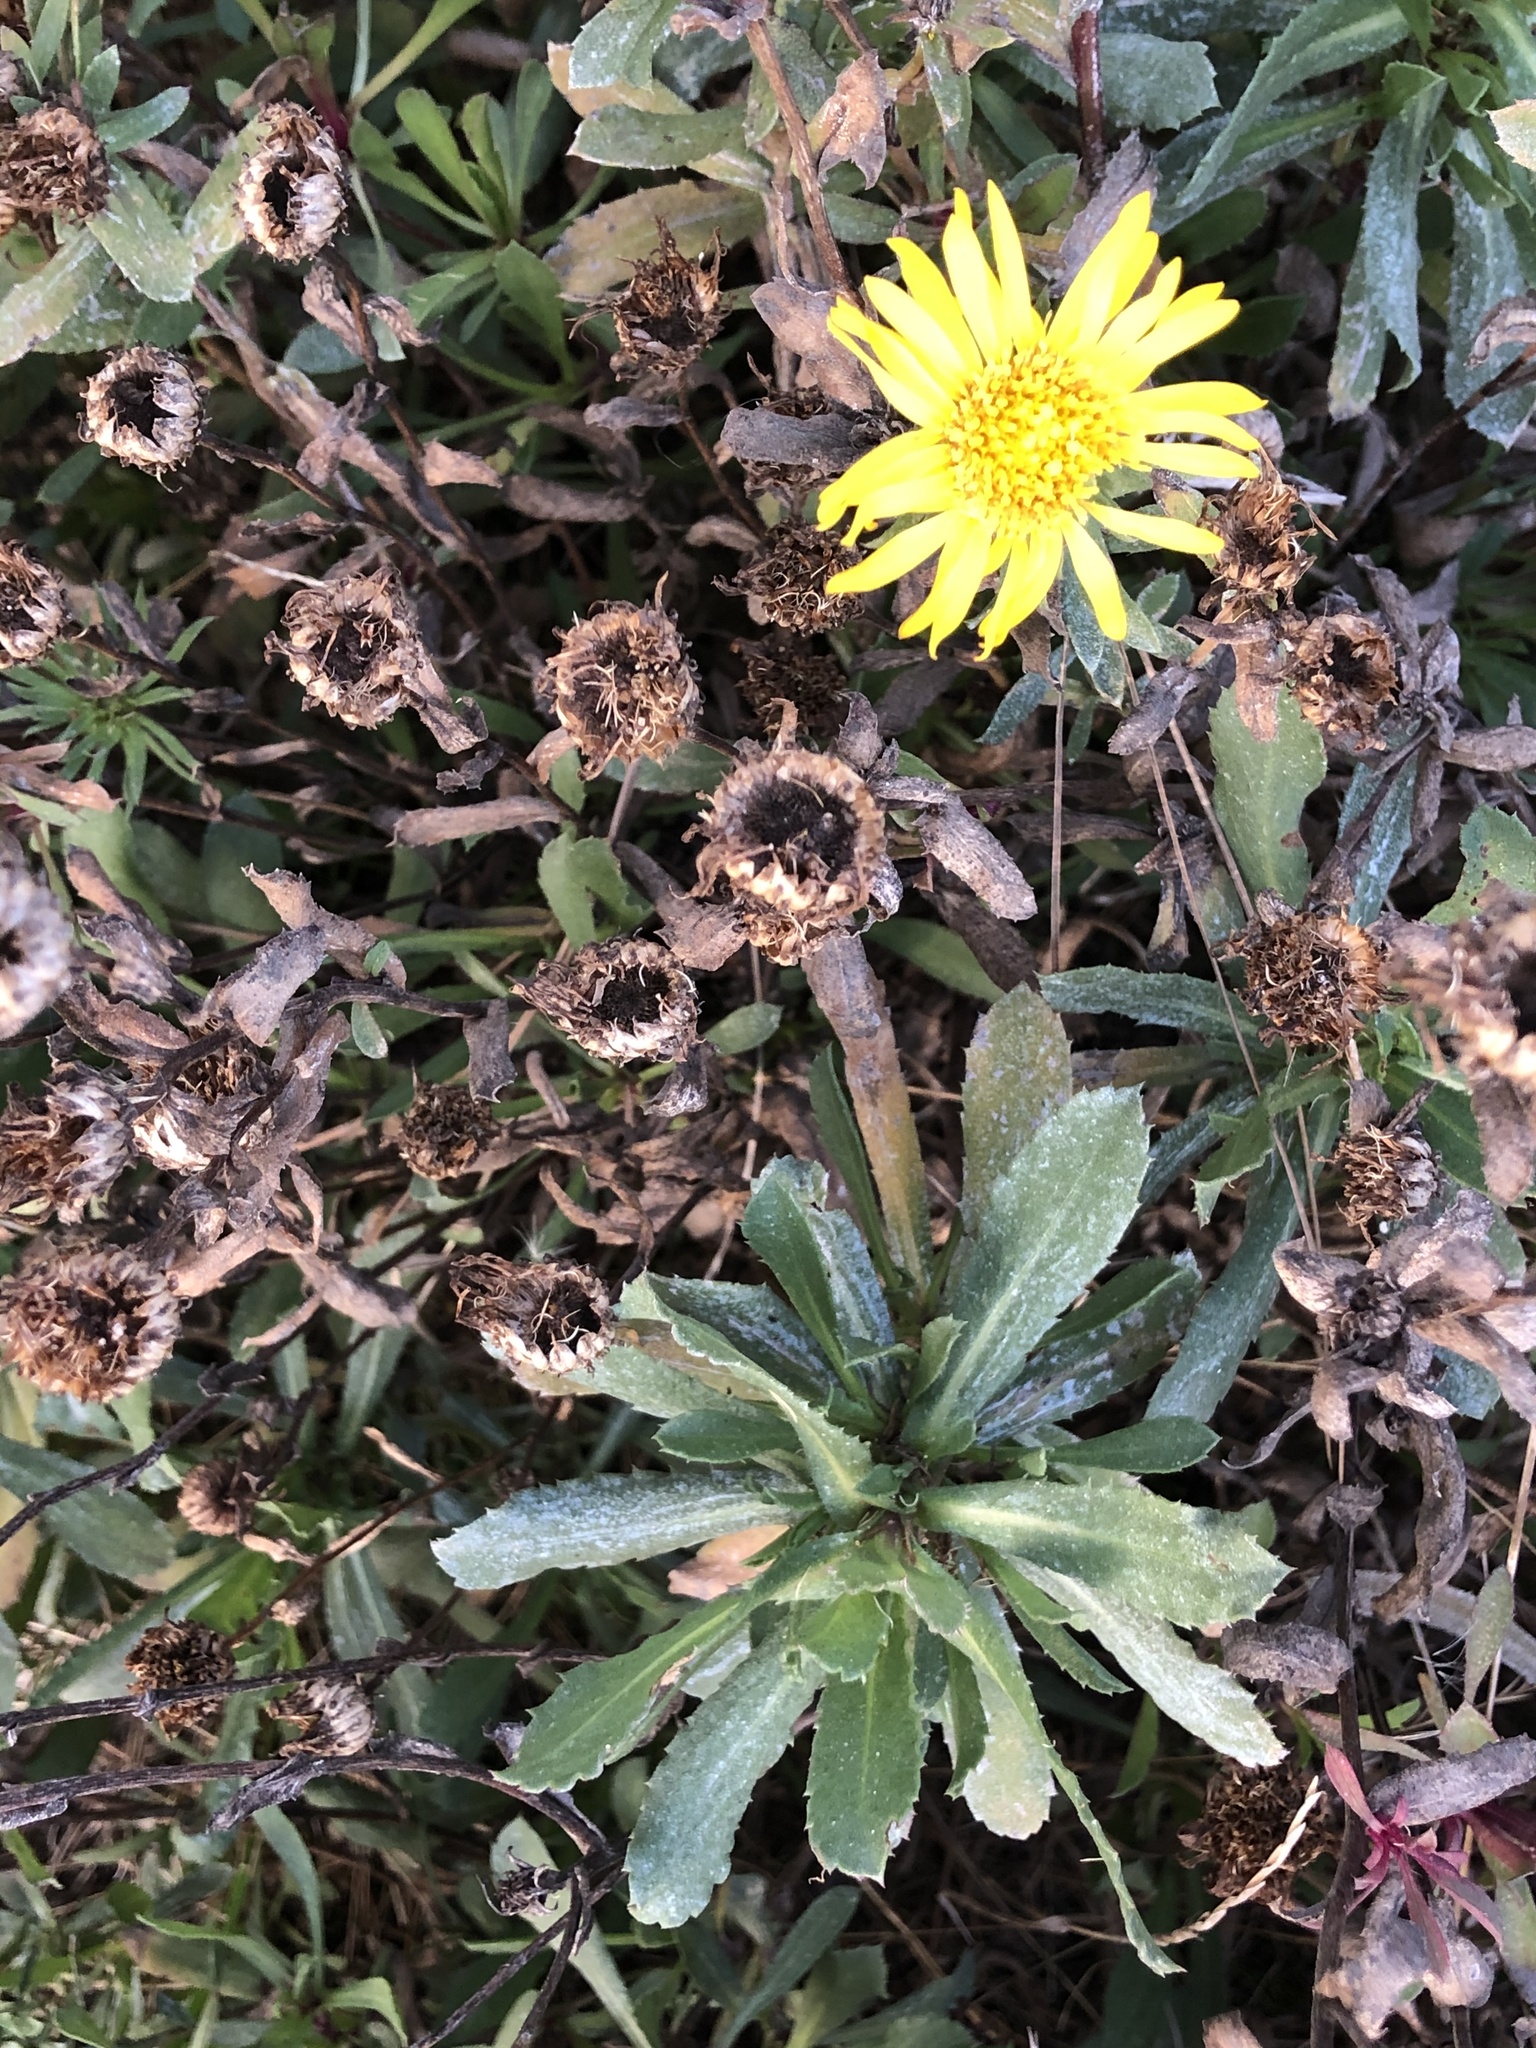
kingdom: Plantae
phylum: Tracheophyta
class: Magnoliopsida
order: Asterales
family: Asteraceae
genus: Grindelia
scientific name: Grindelia hirsutula
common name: Hairy gumweed
